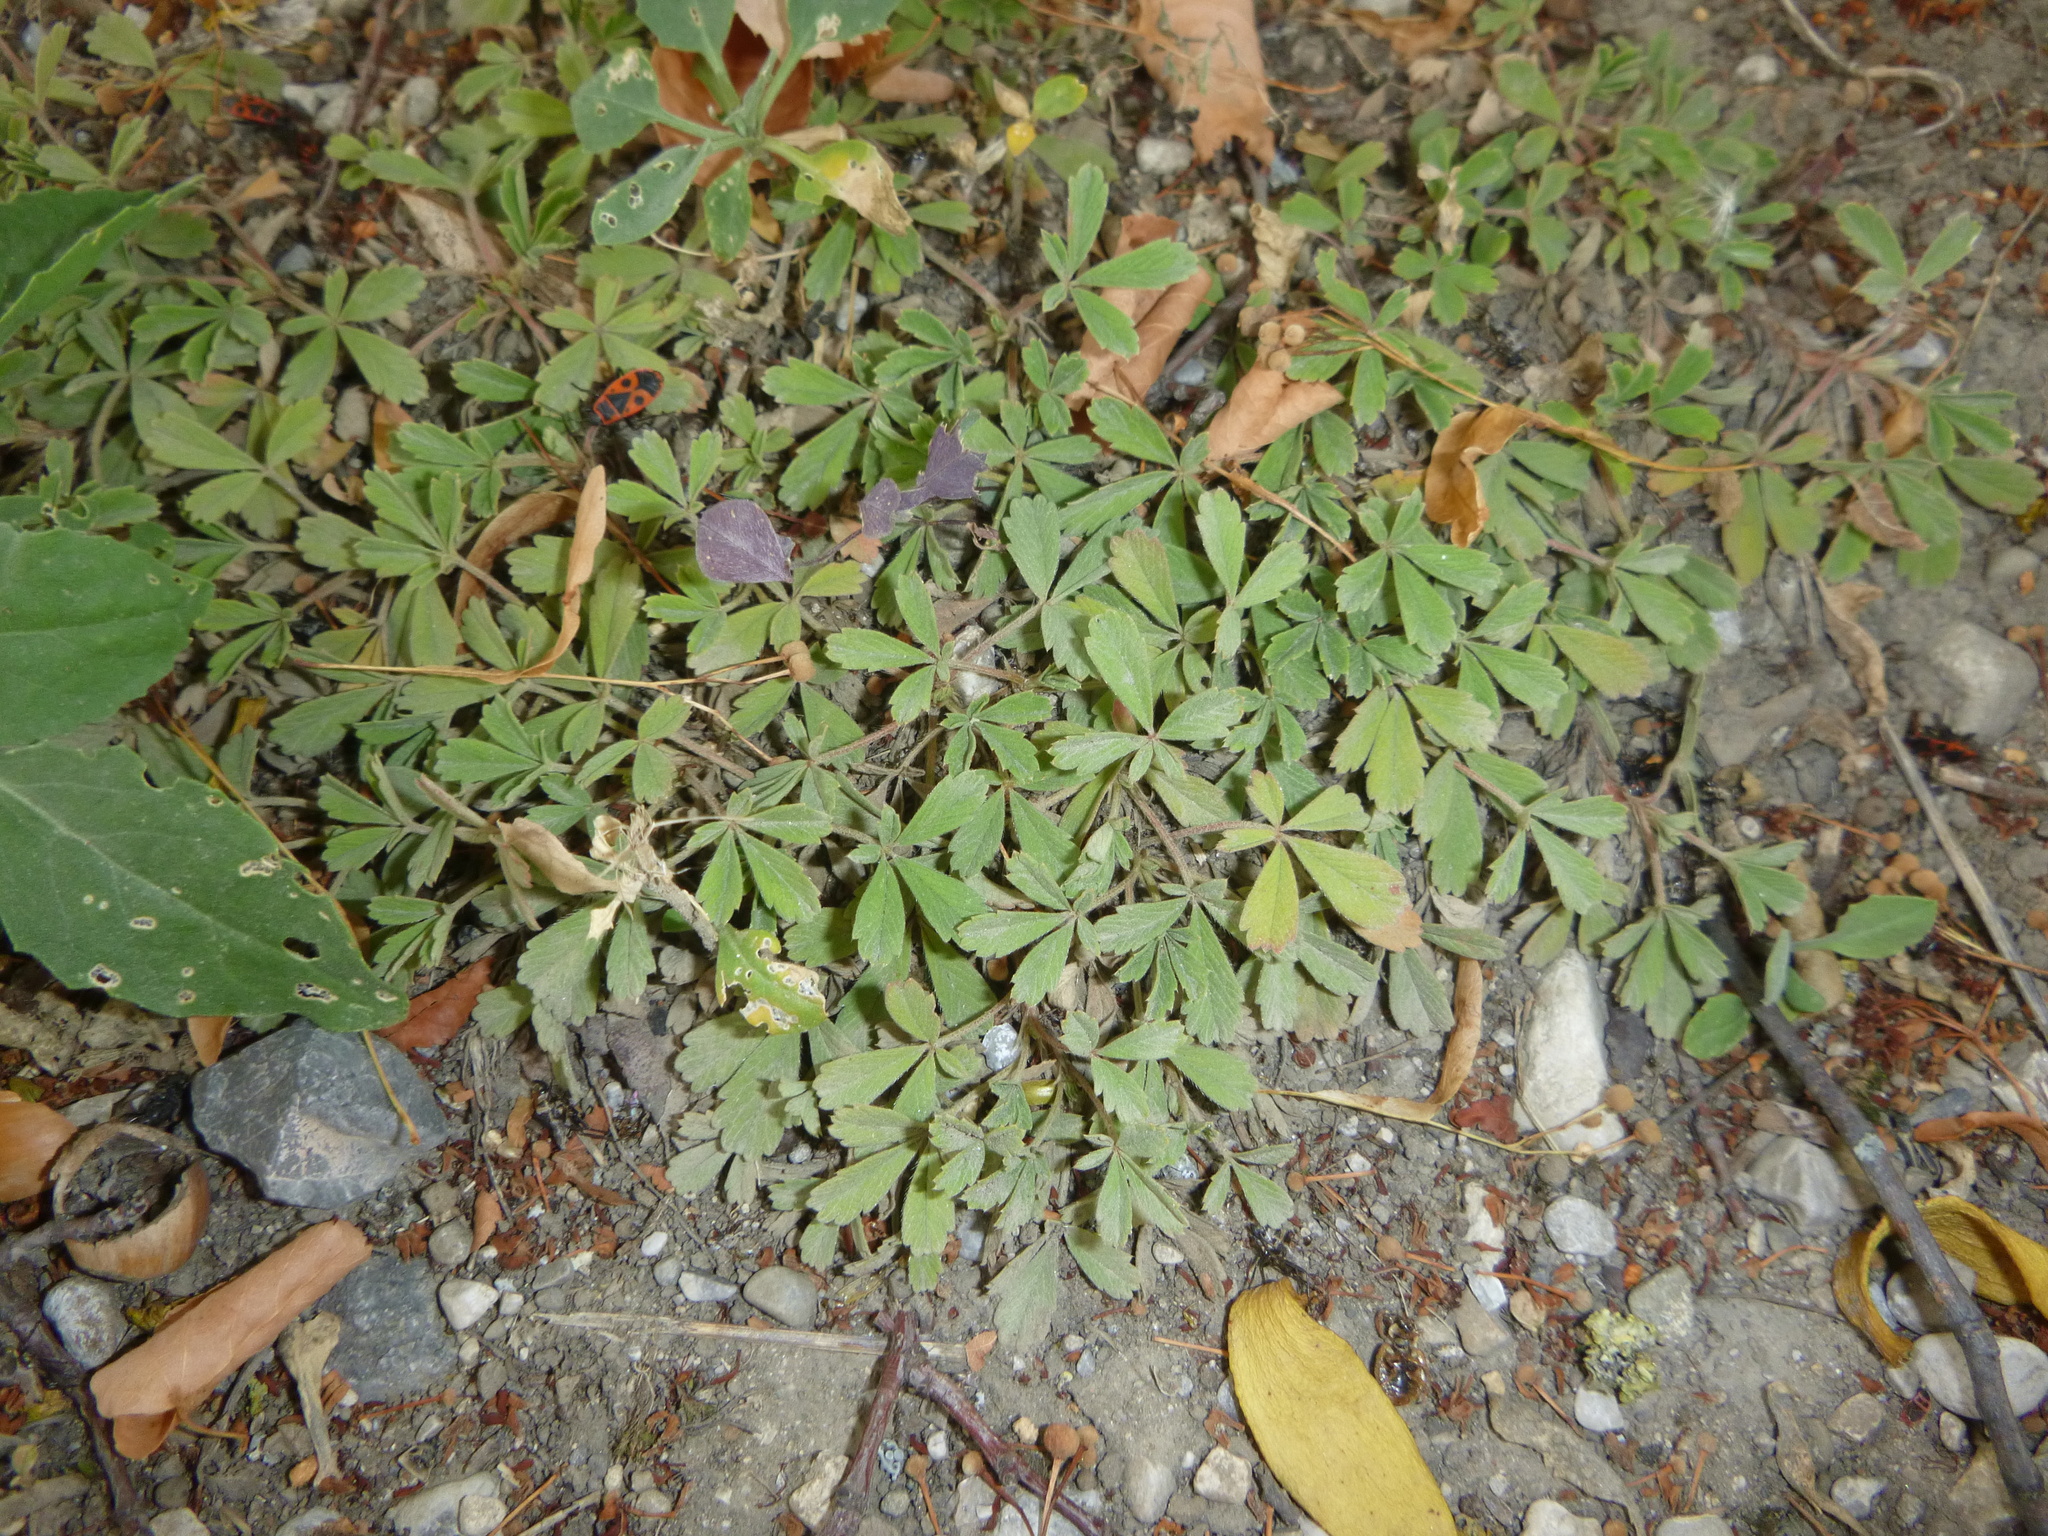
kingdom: Plantae
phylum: Tracheophyta
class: Magnoliopsida
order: Rosales
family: Rosaceae
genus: Potentilla
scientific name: Potentilla incana
